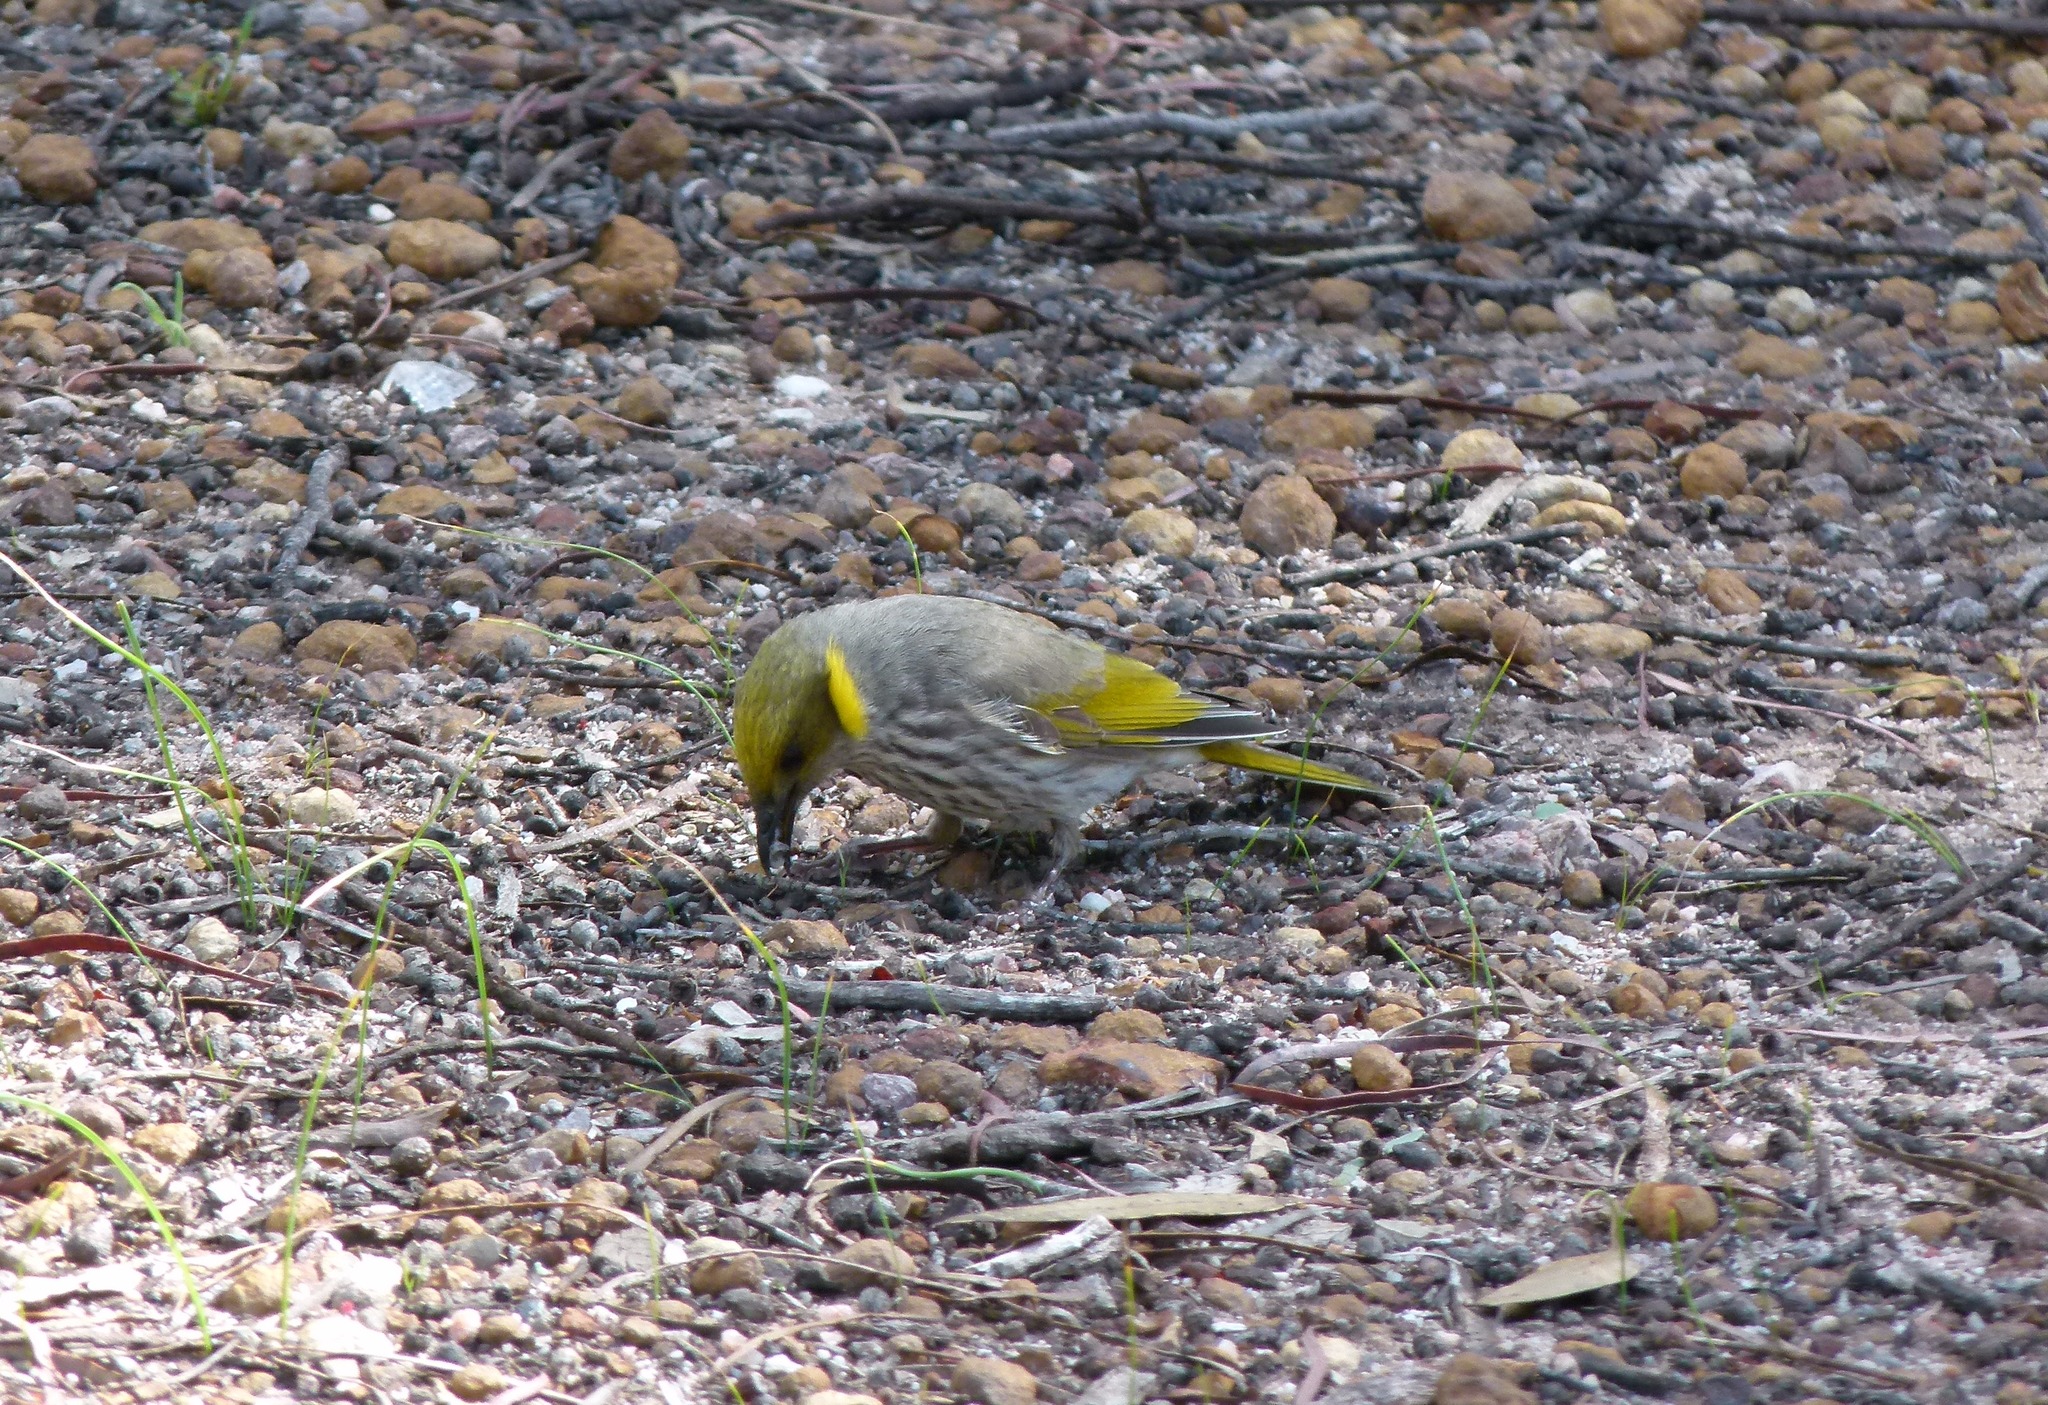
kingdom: Animalia
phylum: Chordata
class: Aves
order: Passeriformes
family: Meliphagidae
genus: Ptilotula
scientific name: Ptilotula ornata
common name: Yellow-plumed honeyeater
